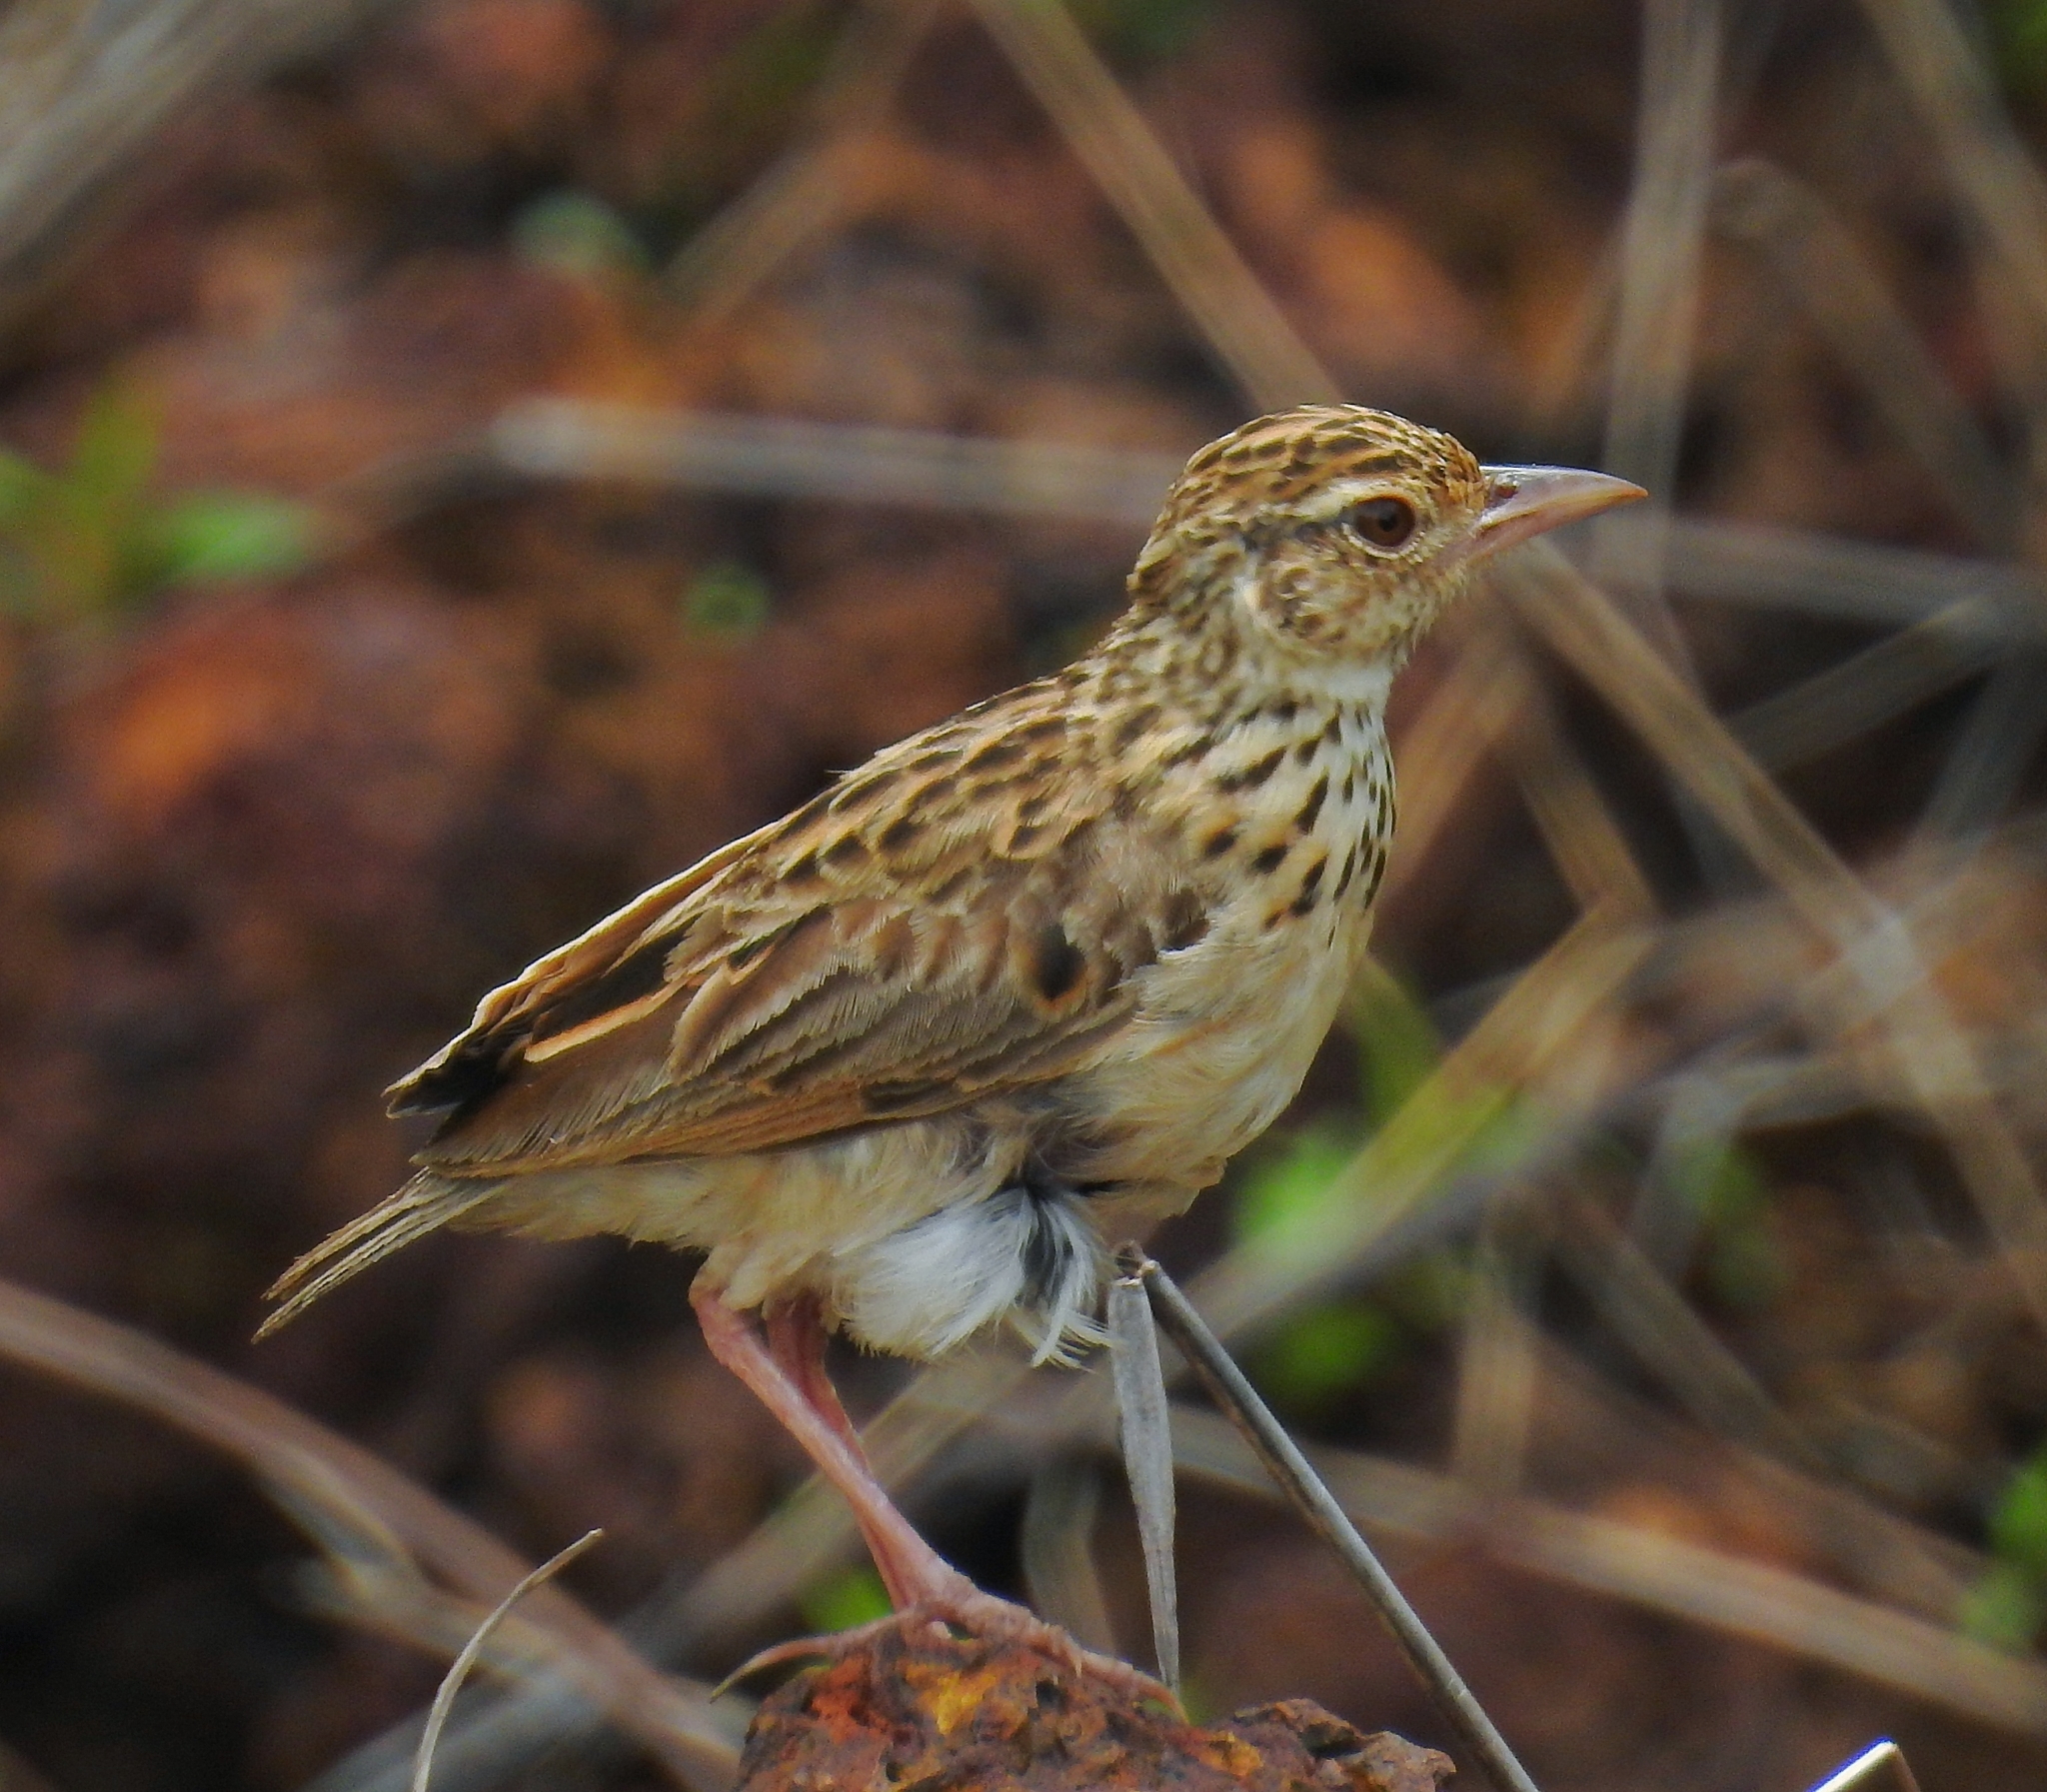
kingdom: Animalia
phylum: Chordata
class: Aves
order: Passeriformes
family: Alaudidae
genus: Mirafra
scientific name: Mirafra affinis
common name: Jerdon's bushlark
